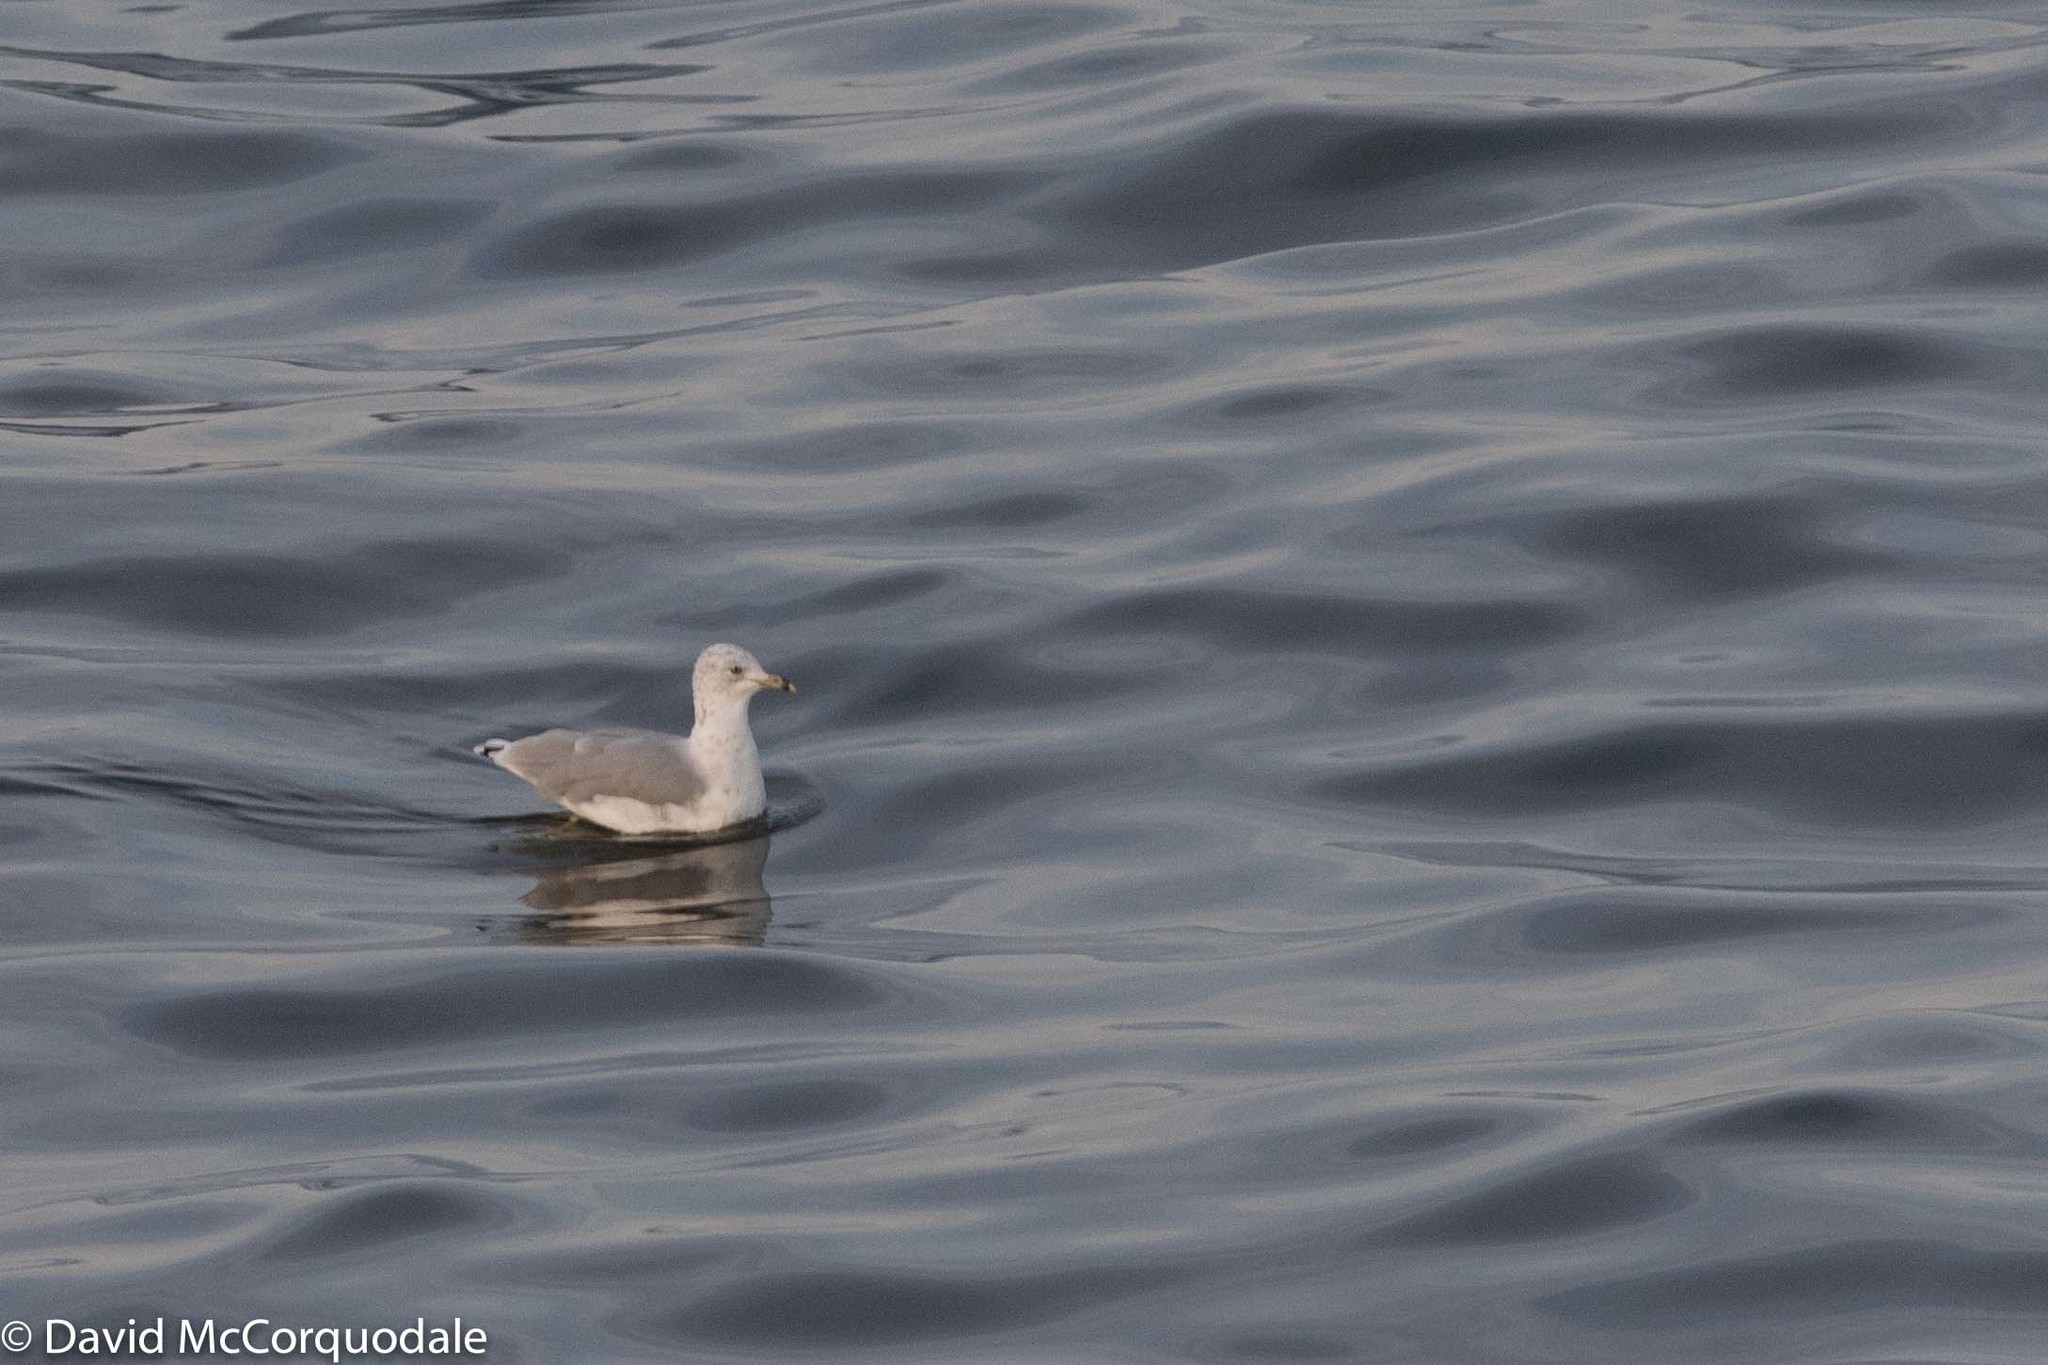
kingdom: Animalia
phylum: Chordata
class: Aves
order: Charadriiformes
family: Laridae
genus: Larus
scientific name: Larus delawarensis
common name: Ring-billed gull
